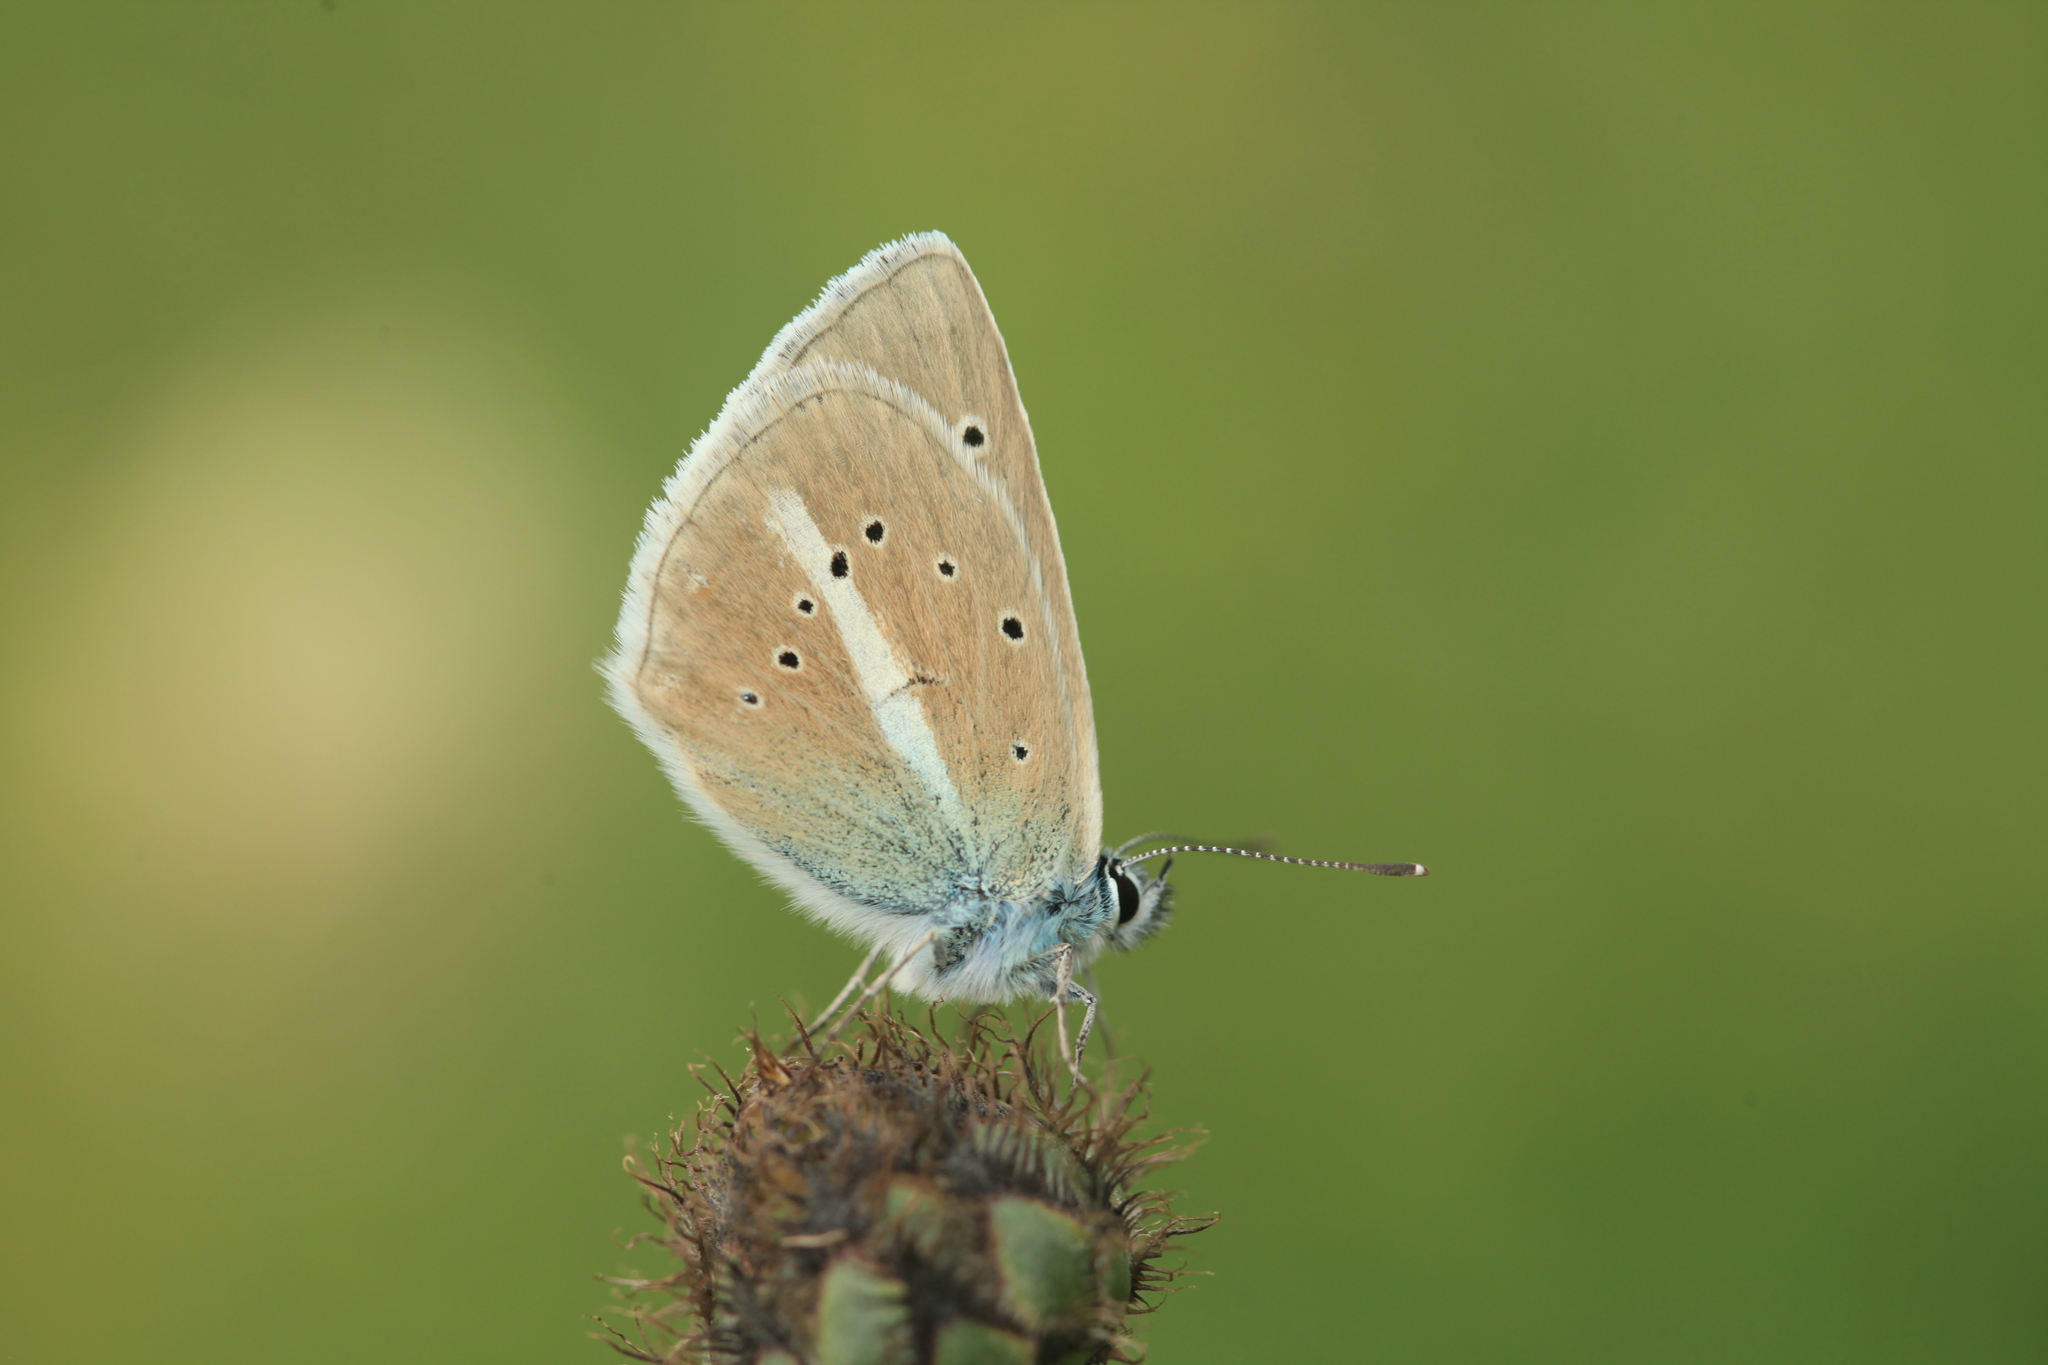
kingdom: Animalia
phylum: Arthropoda
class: Insecta
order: Lepidoptera
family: Lycaenidae
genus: Agrodiaetus
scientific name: Agrodiaetus damon
